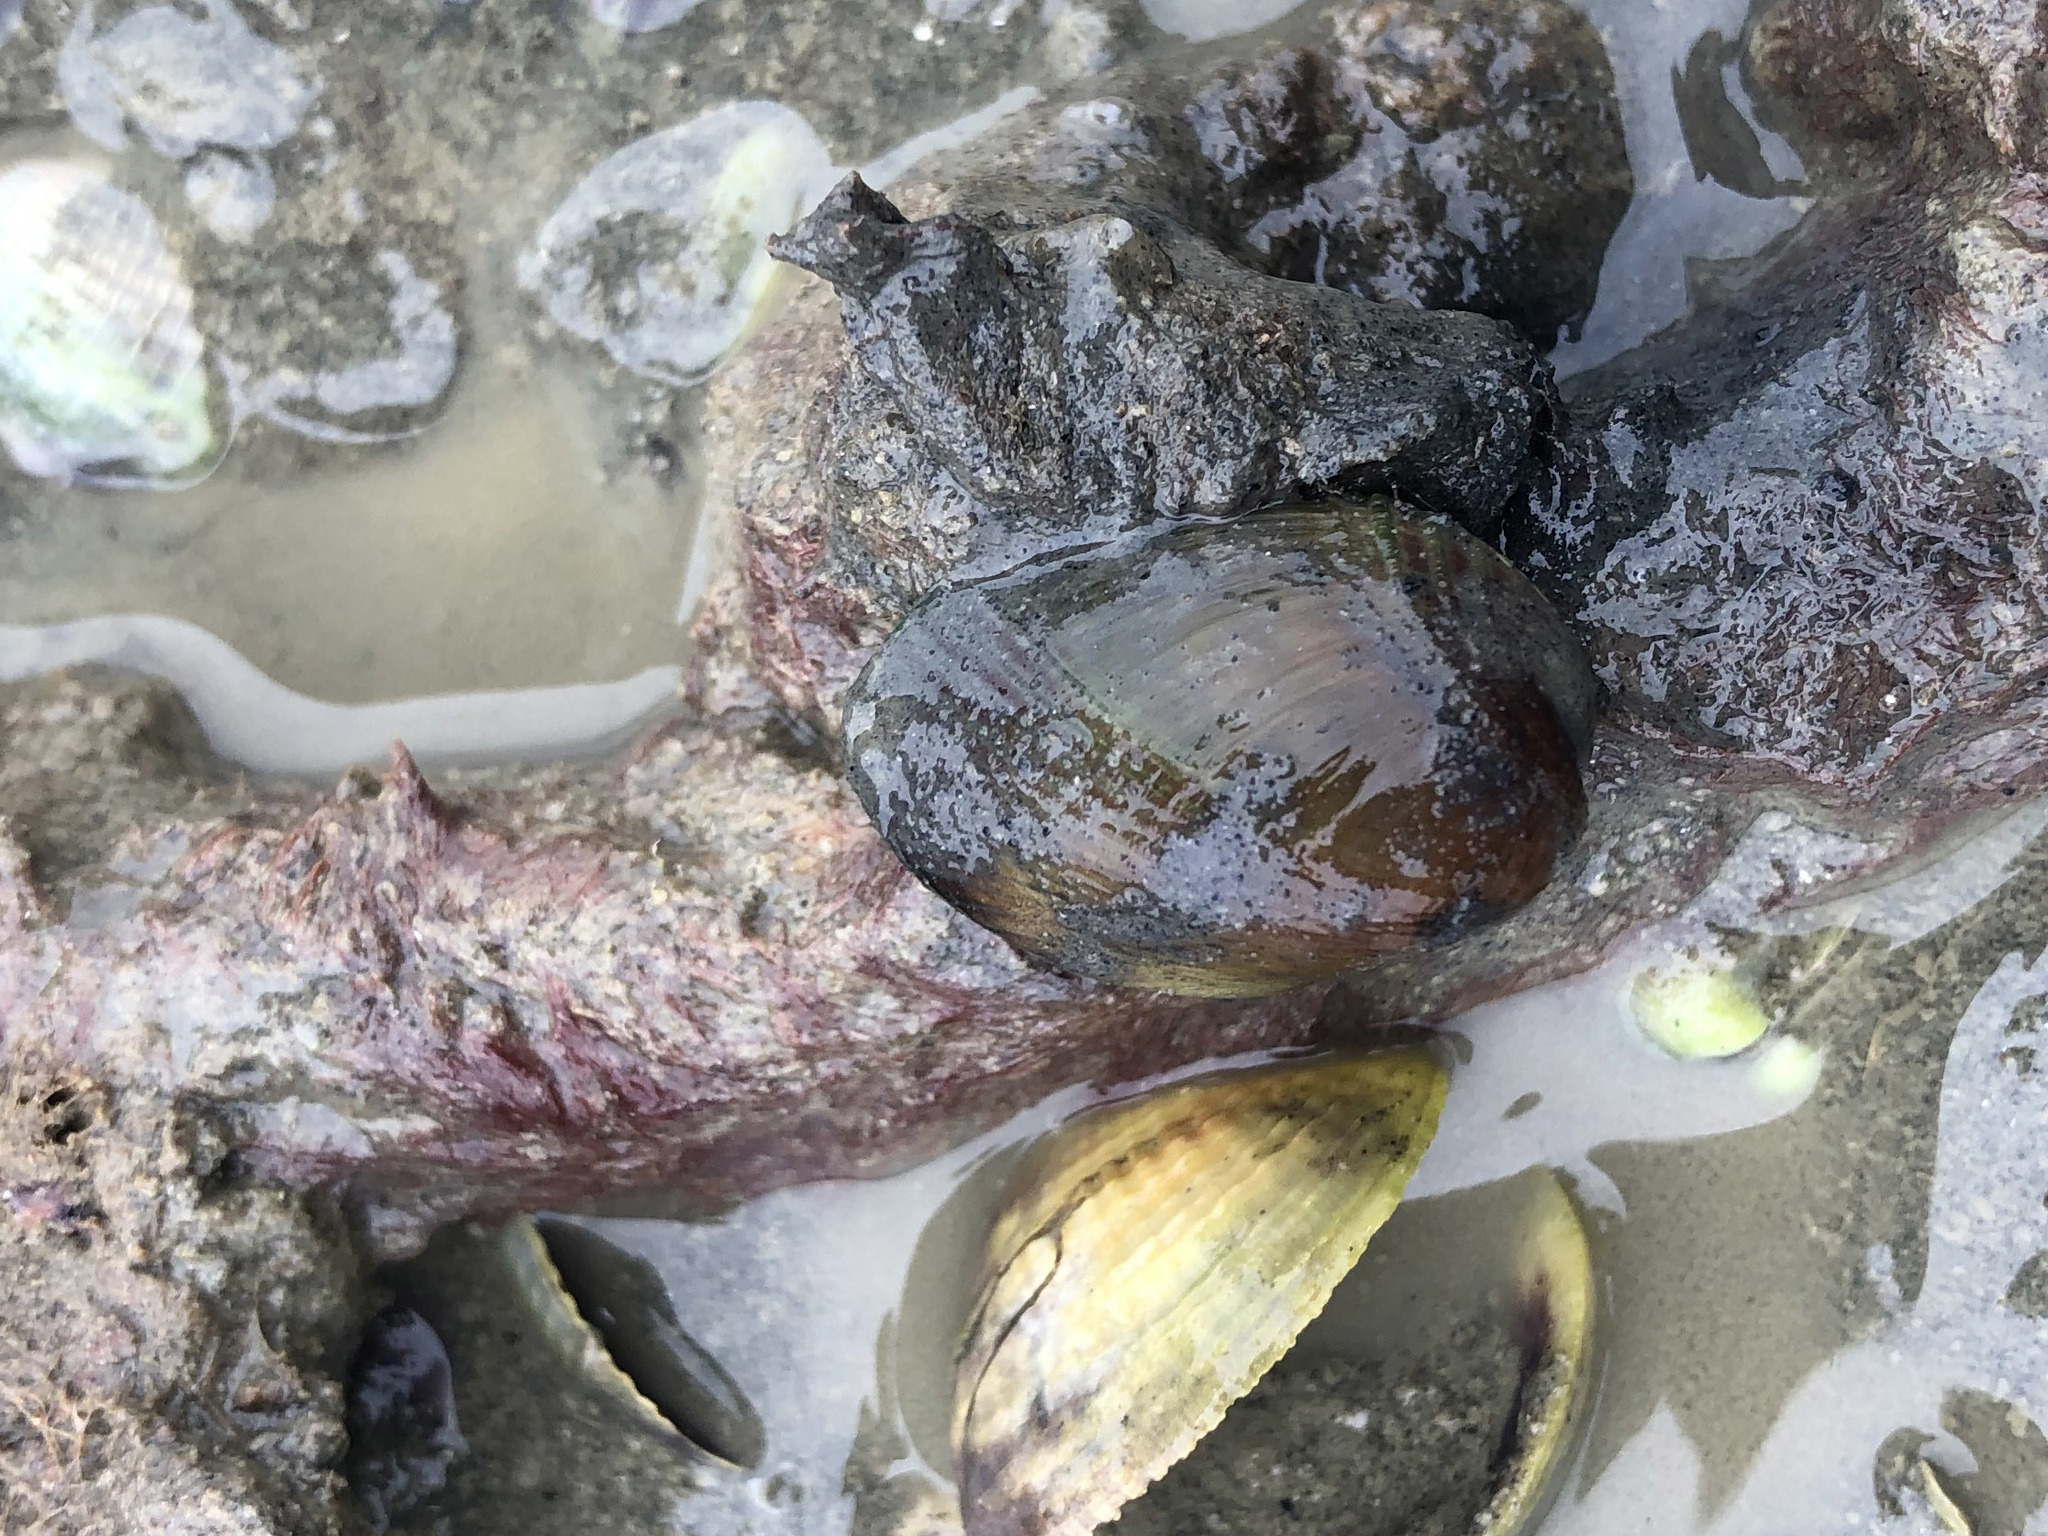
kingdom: Animalia
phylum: Mollusca
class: Bivalvia
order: Mytilida
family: Mytilidae
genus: Musculus
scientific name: Musculus impactus
